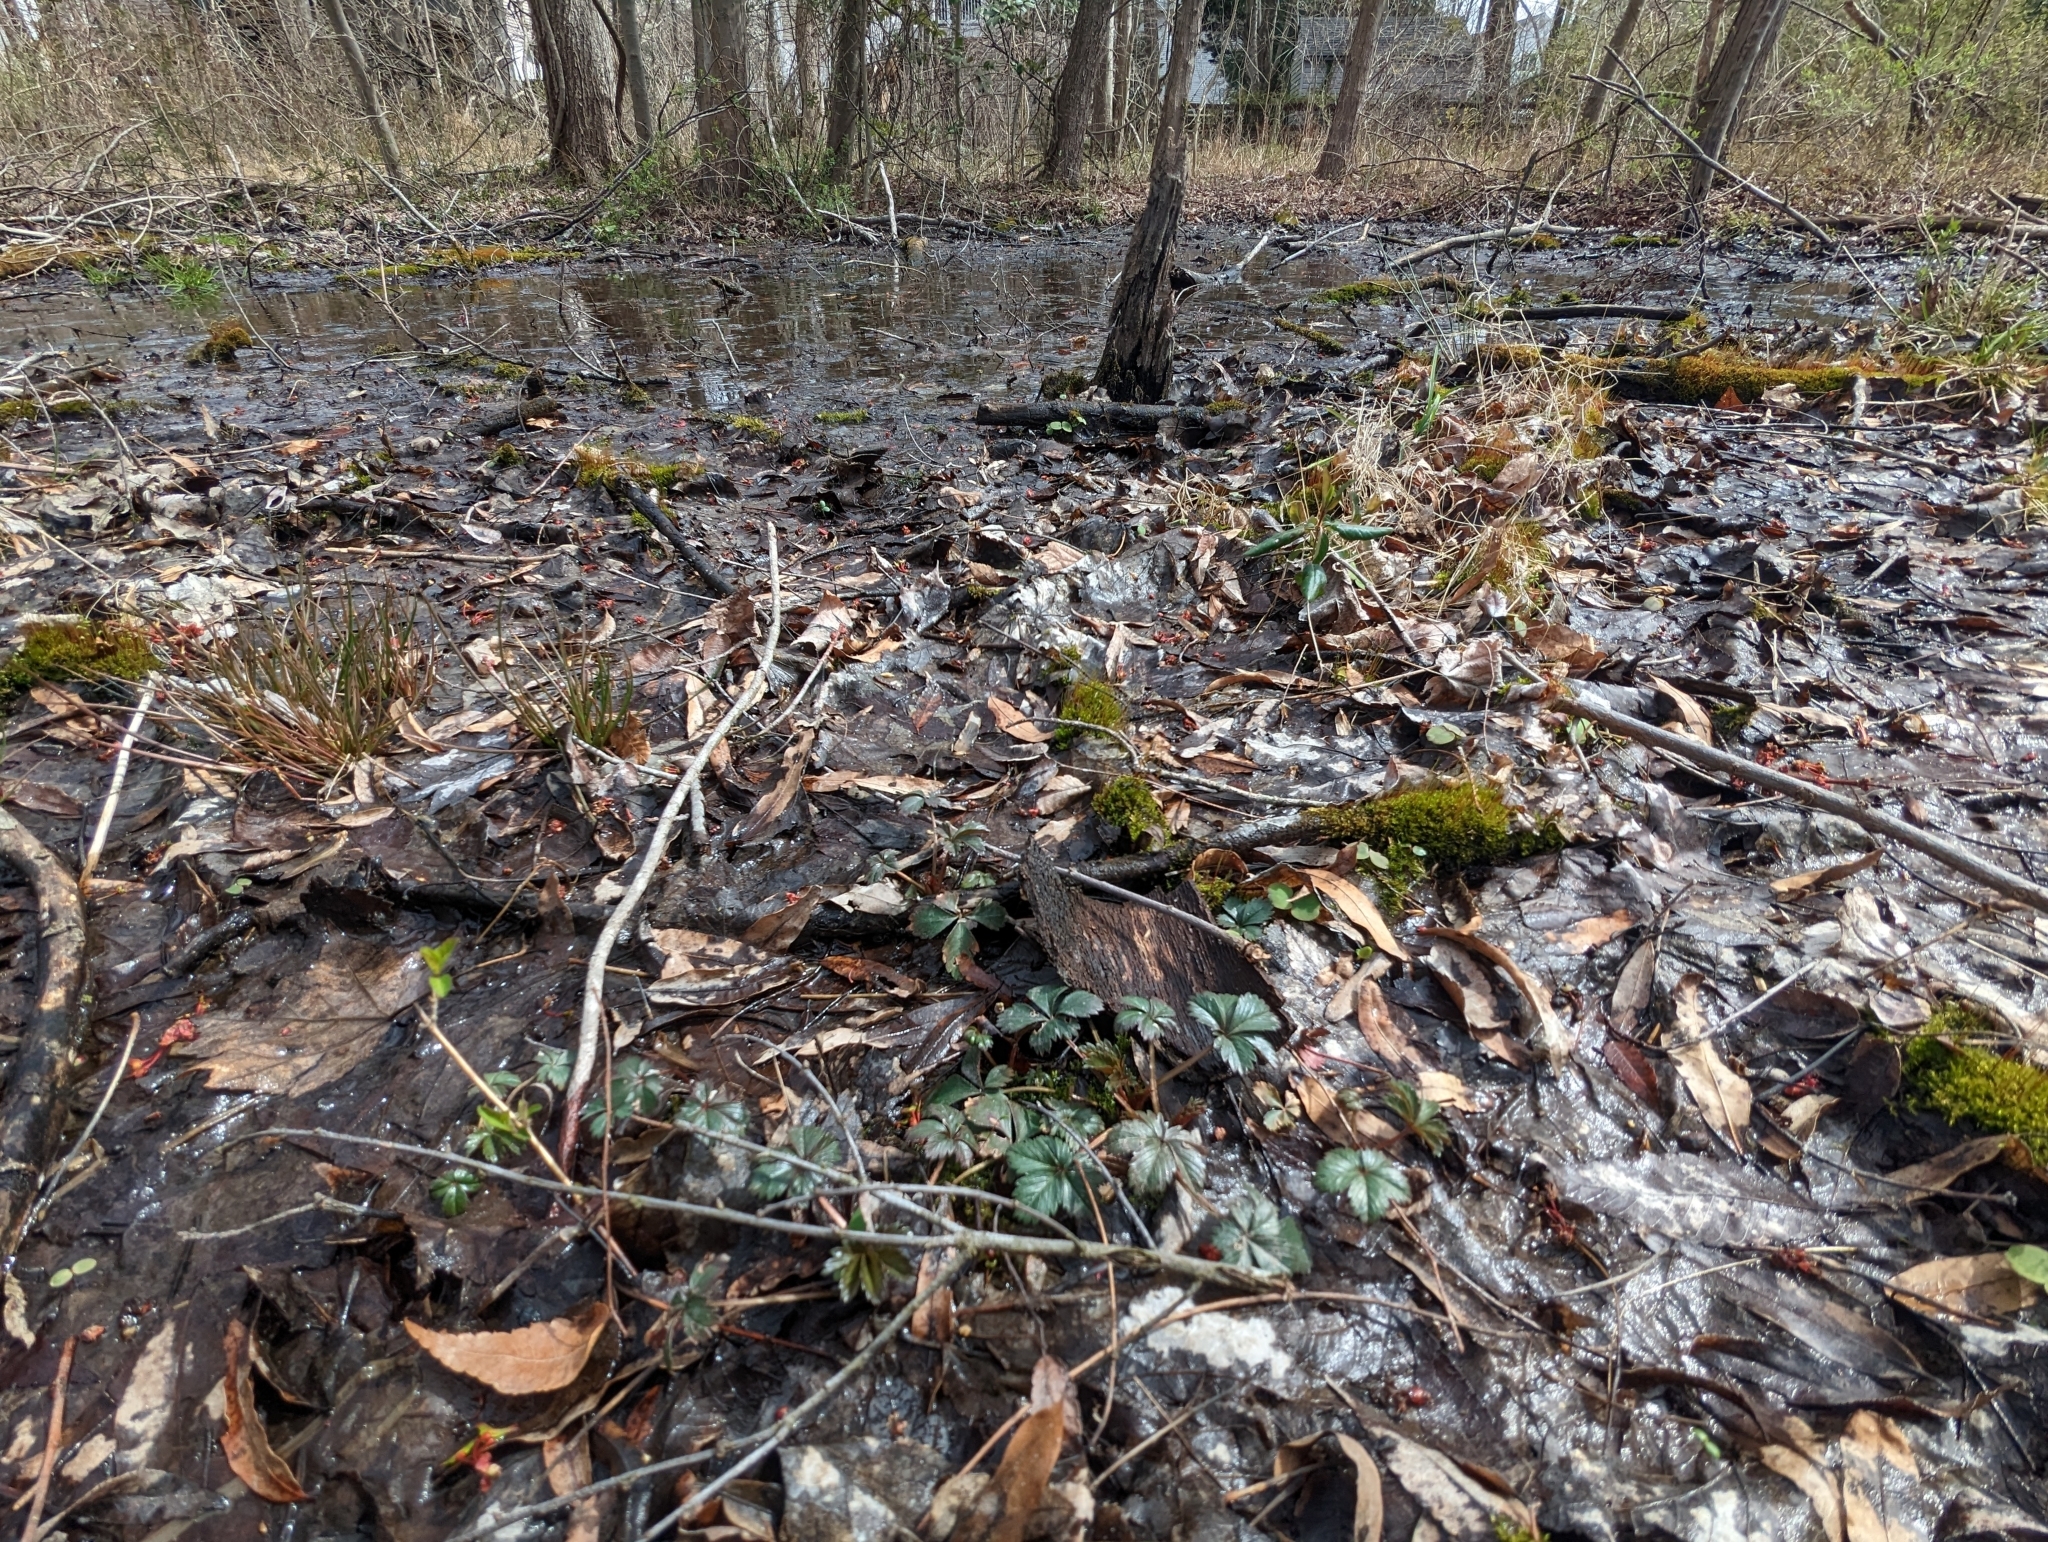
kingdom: Plantae
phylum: Tracheophyta
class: Magnoliopsida
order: Rosales
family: Rosaceae
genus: Potentilla
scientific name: Potentilla canadensis
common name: Canada cinquefoil
